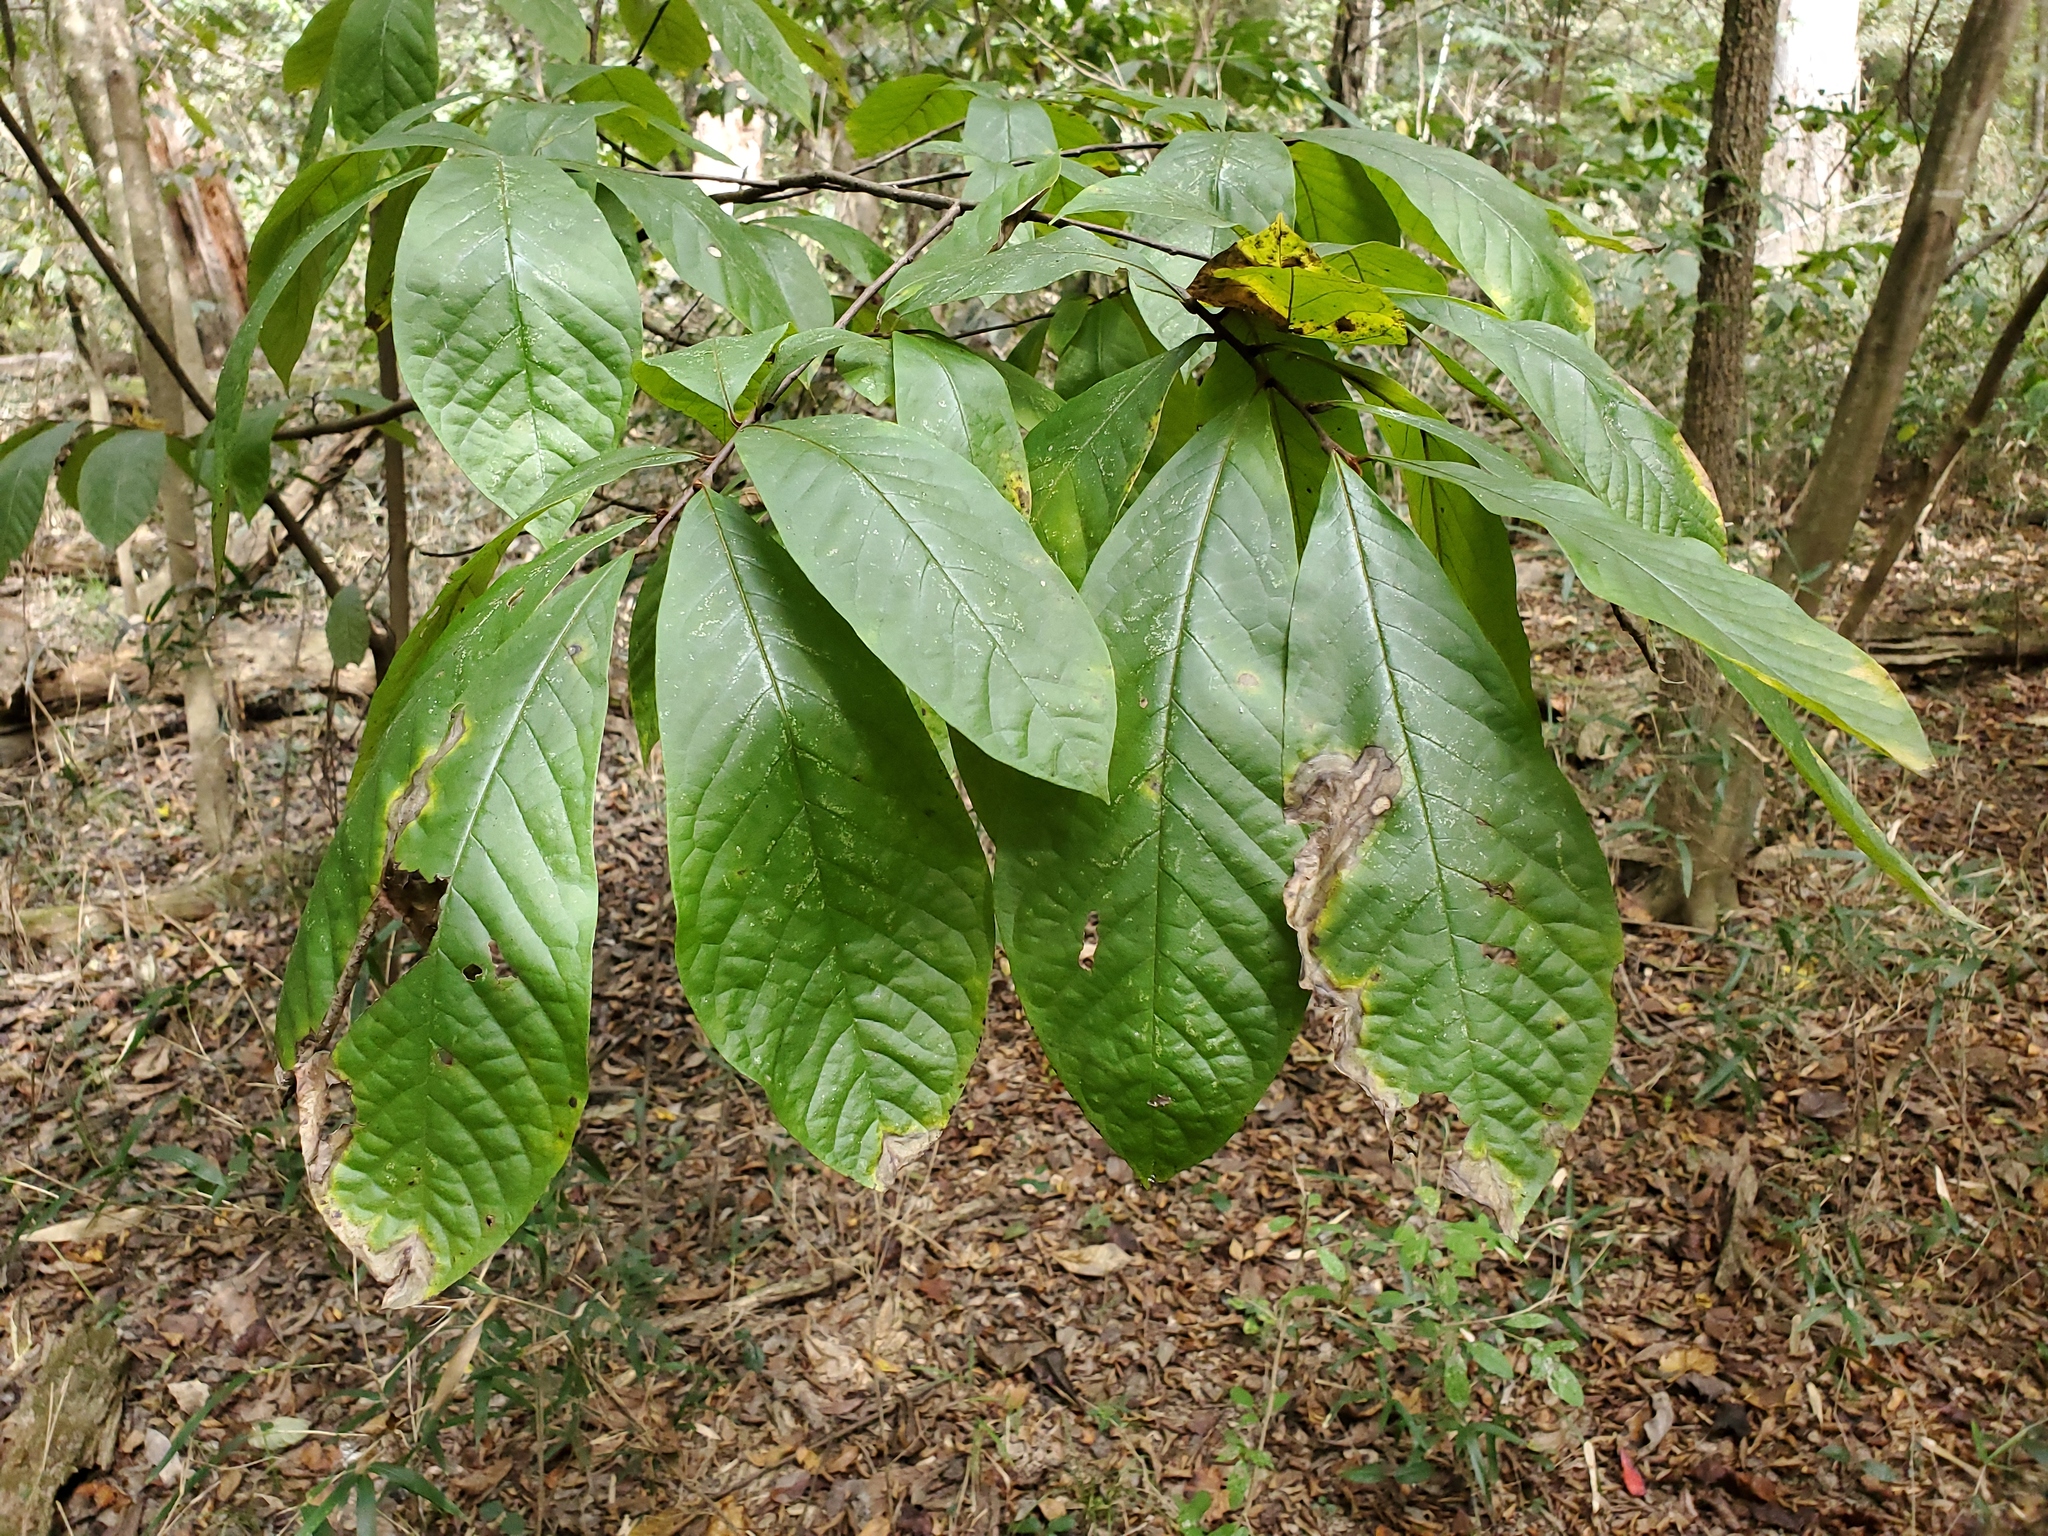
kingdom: Plantae
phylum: Tracheophyta
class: Magnoliopsida
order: Magnoliales
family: Annonaceae
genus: Asimina
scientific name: Asimina triloba
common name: Dog-banana
